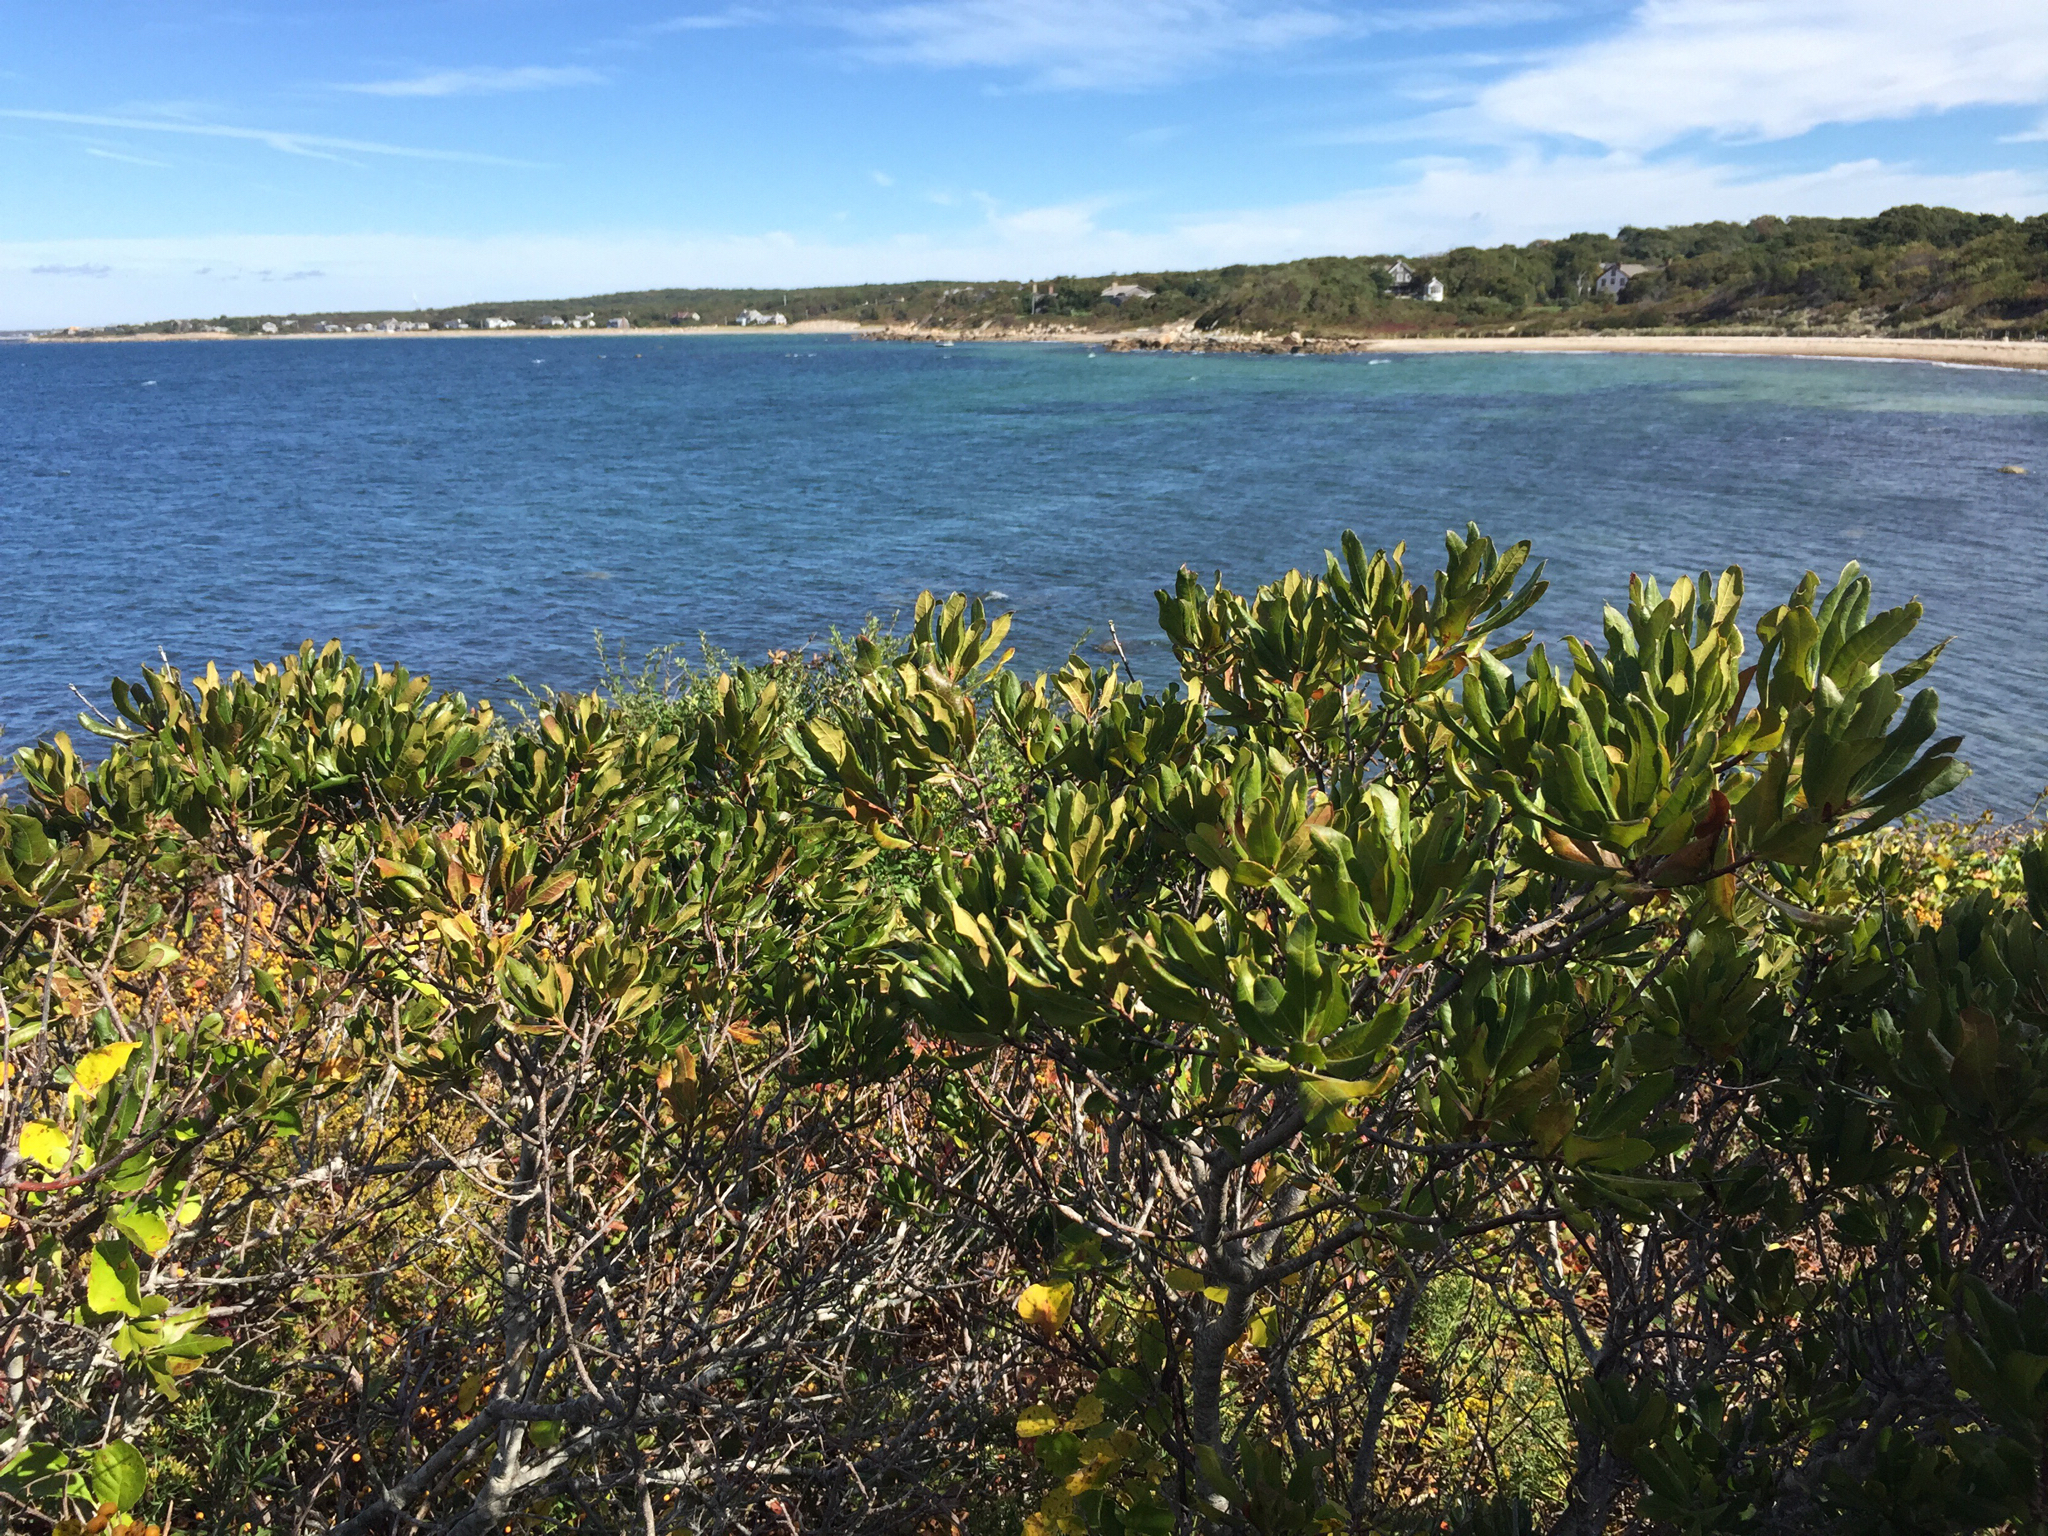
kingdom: Plantae
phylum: Tracheophyta
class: Magnoliopsida
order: Fagales
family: Myricaceae
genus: Morella
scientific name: Morella pensylvanica
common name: Northern bayberry
